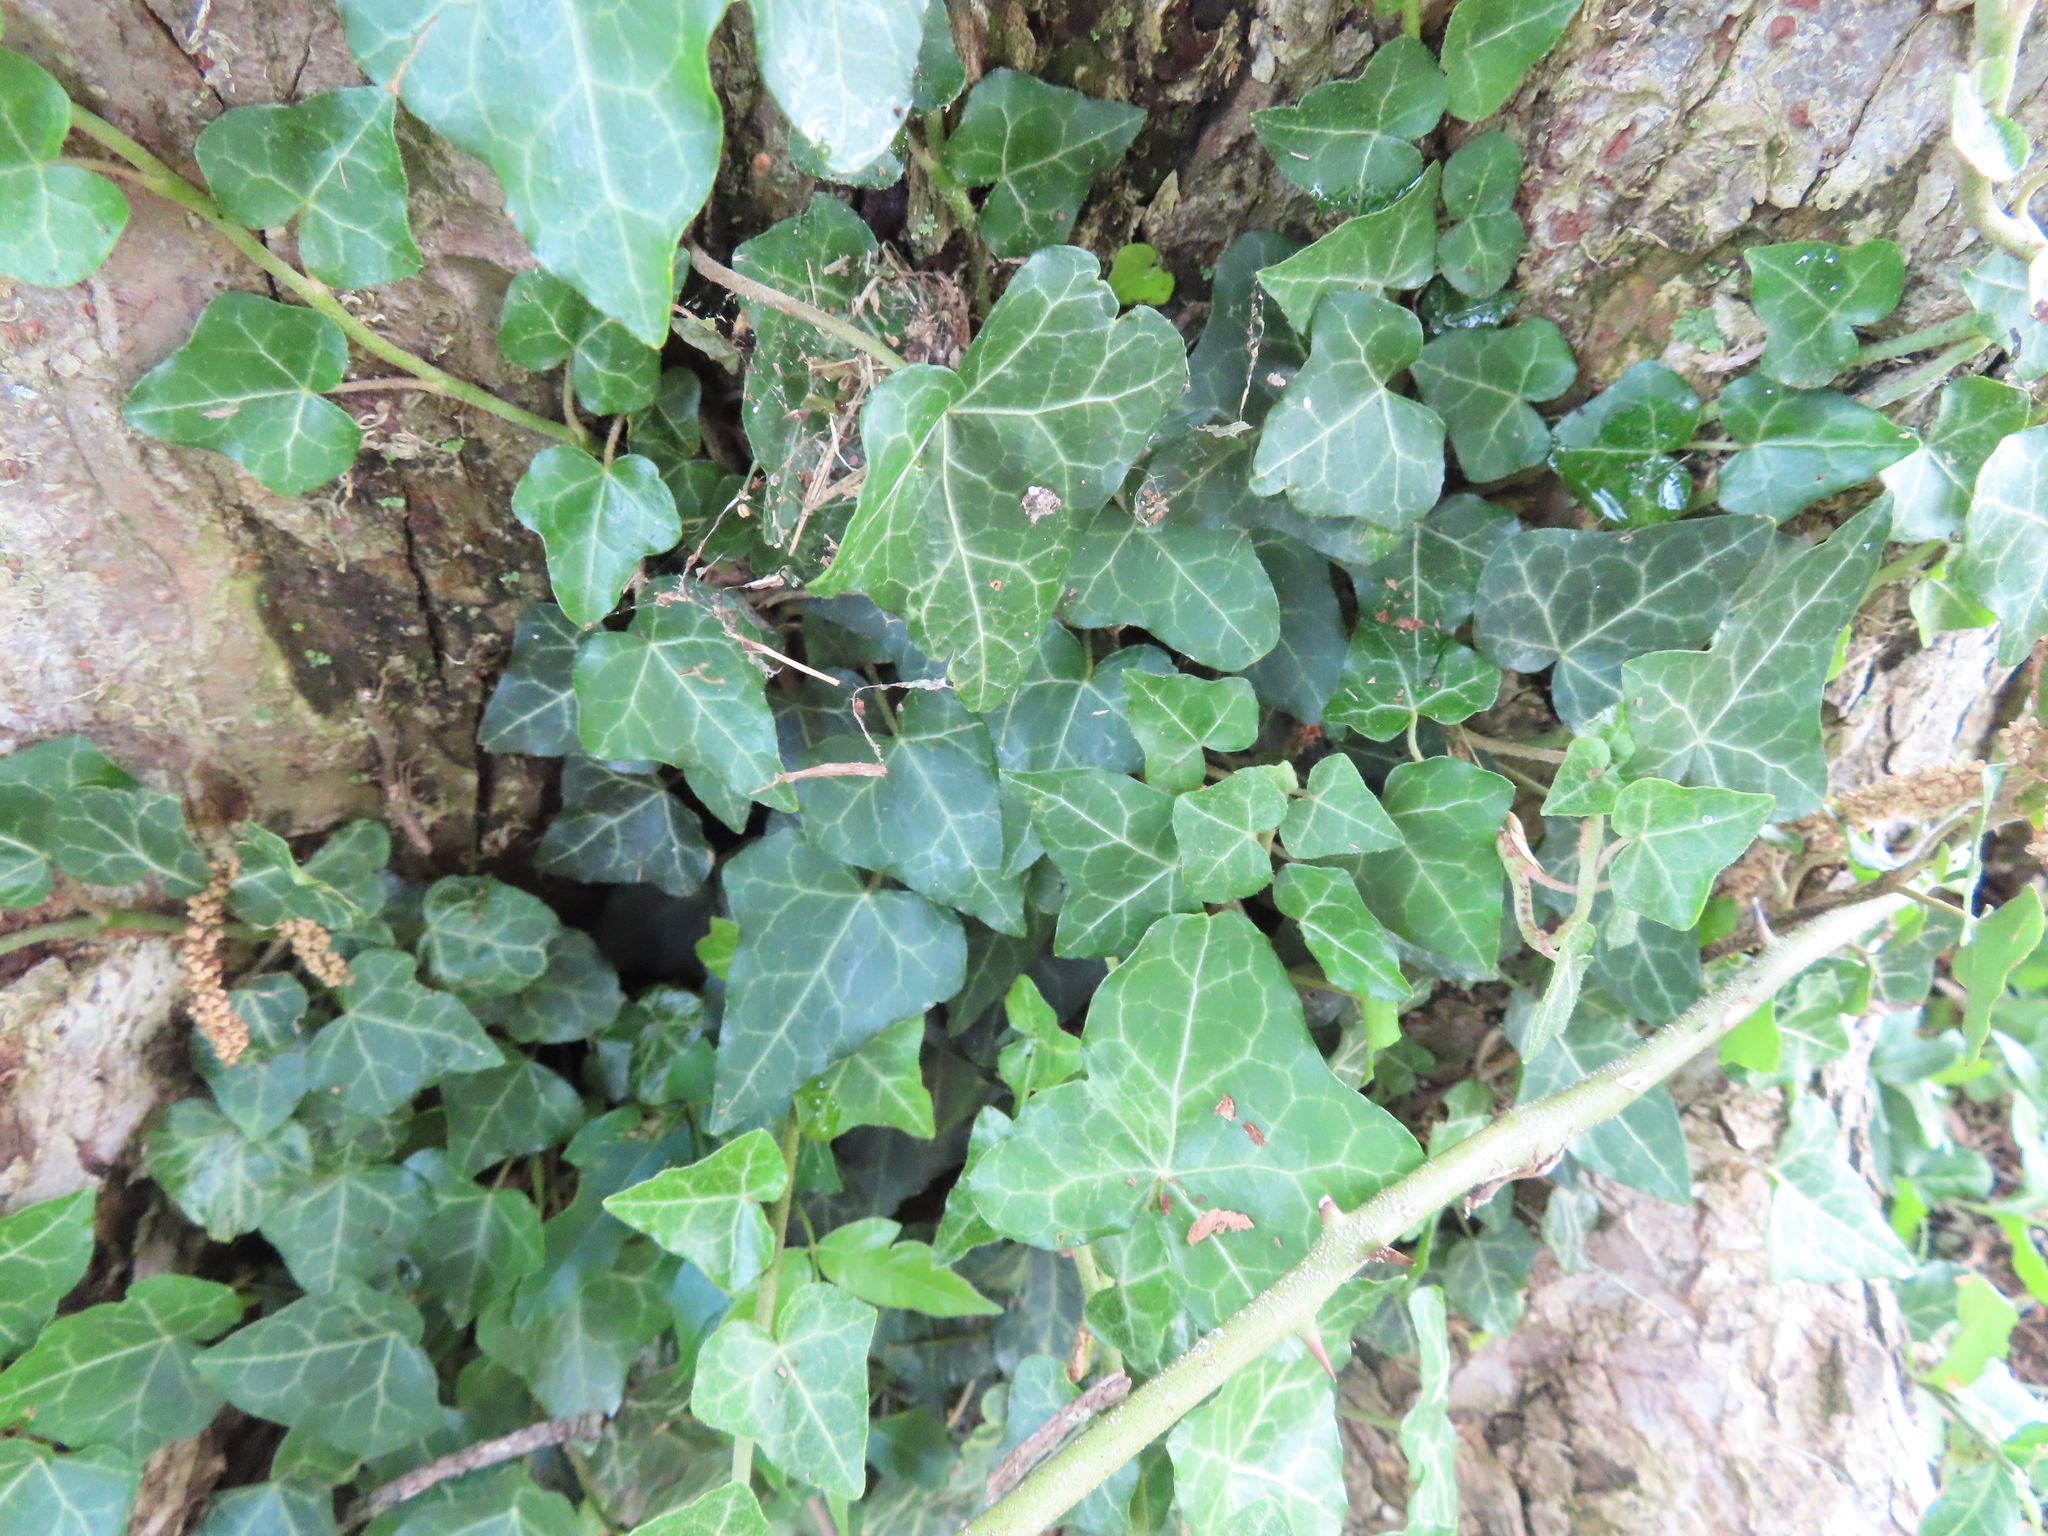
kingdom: Plantae
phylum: Tracheophyta
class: Magnoliopsida
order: Apiales
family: Araliaceae
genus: Hedera
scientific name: Hedera helix
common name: Ivy
